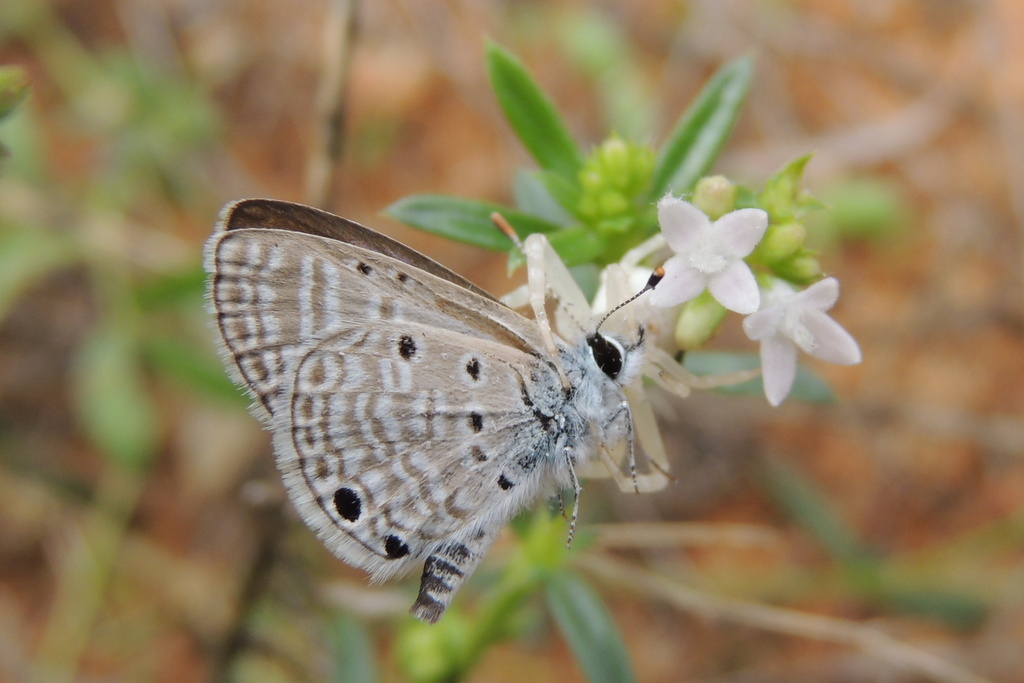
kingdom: Animalia
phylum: Arthropoda
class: Insecta
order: Lepidoptera
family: Lycaenidae
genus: Azanus
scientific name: Azanus ubaldus
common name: Desert babul blue
